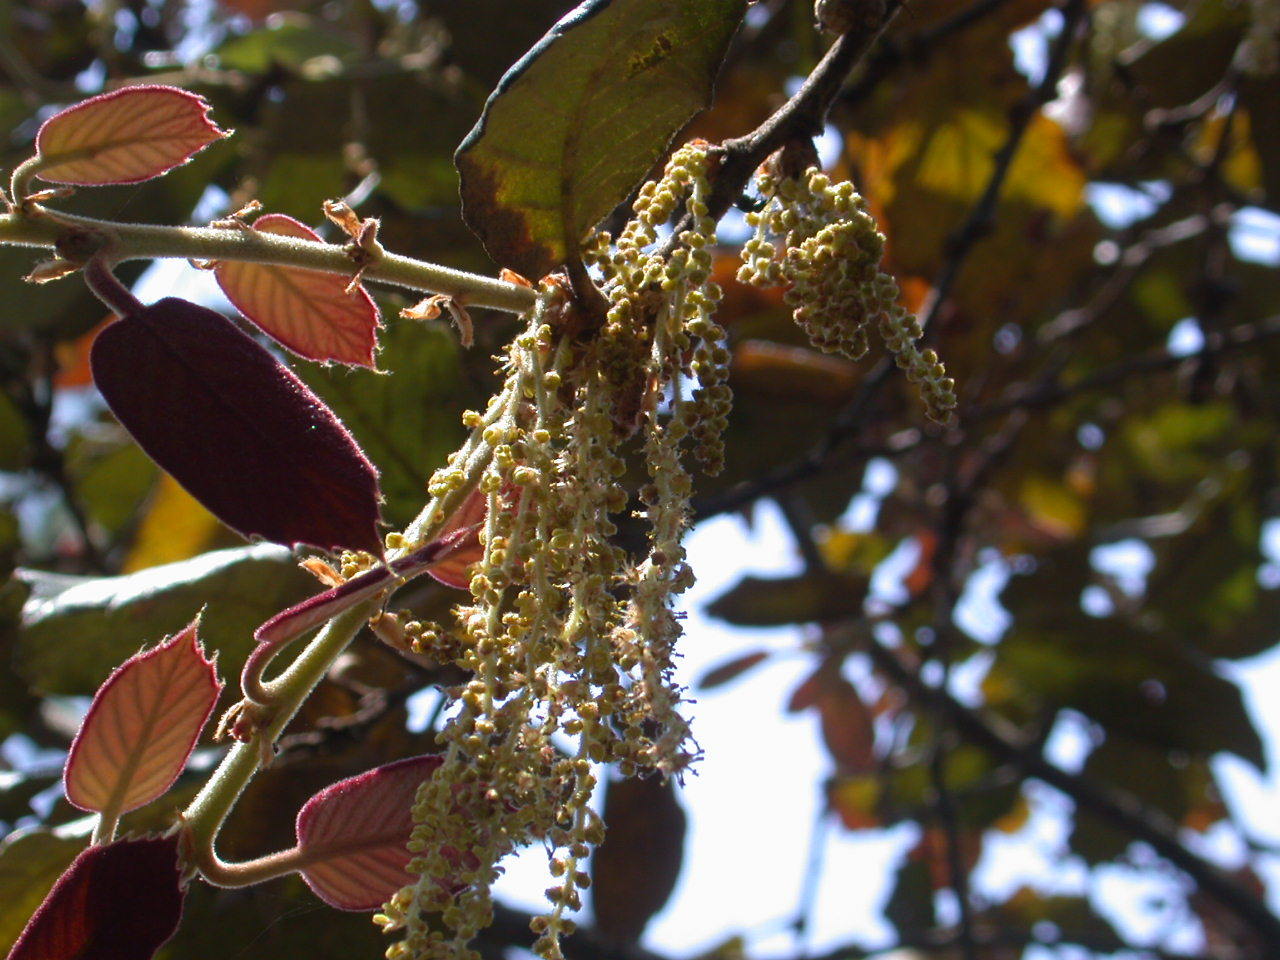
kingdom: Plantae
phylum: Tracheophyta
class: Magnoliopsida
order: Fagales
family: Fagaceae
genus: Quercus
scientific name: Quercus crassifolia
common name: Leather leaf mexican oak
